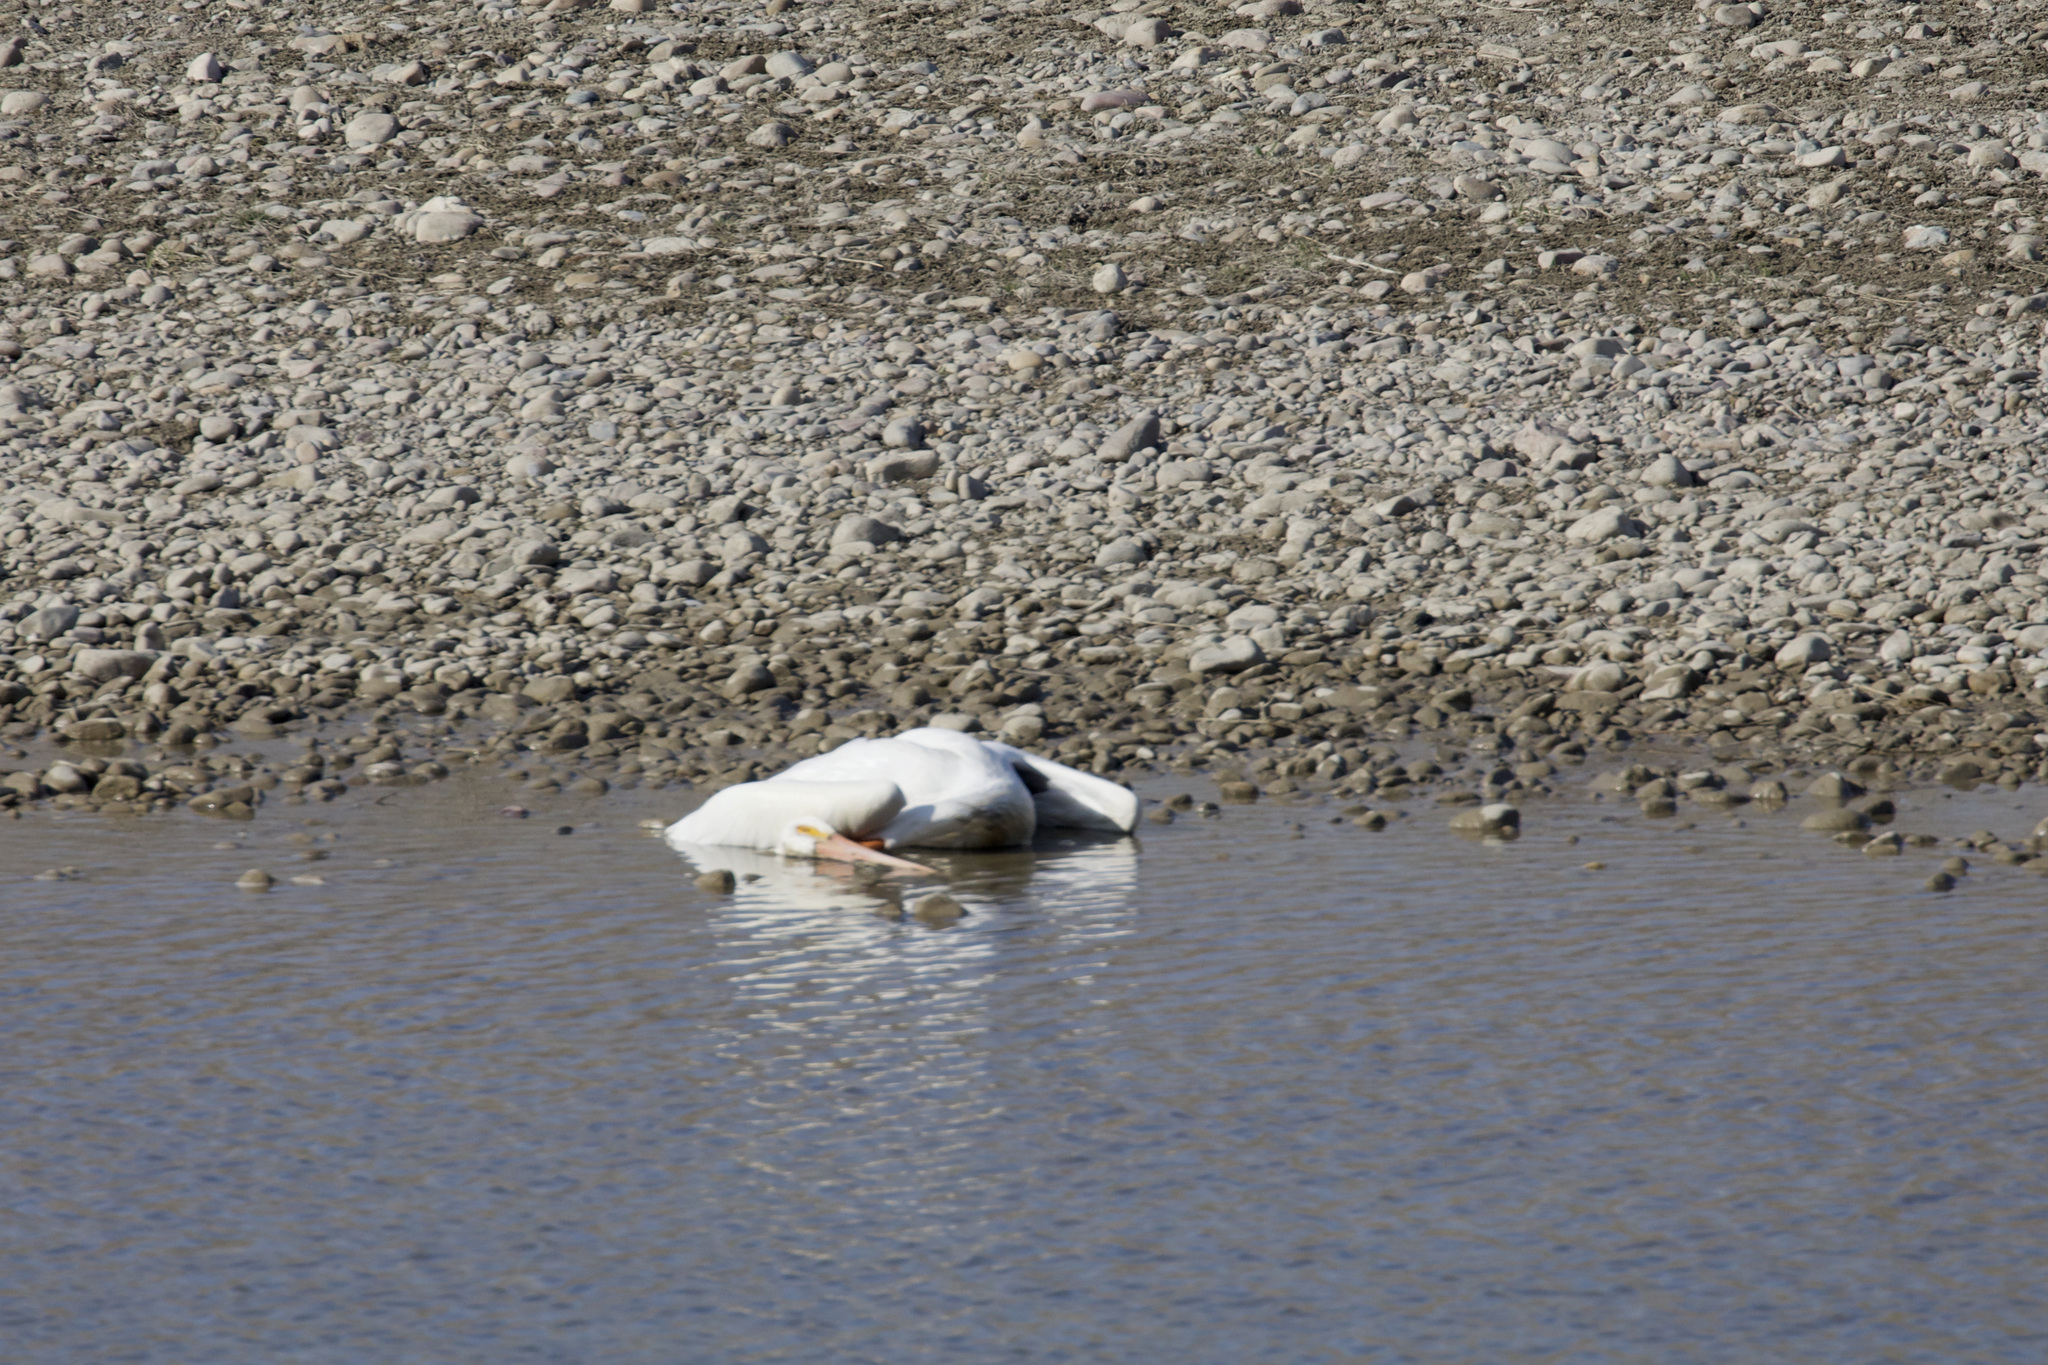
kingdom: Animalia
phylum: Chordata
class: Aves
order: Pelecaniformes
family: Pelecanidae
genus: Pelecanus
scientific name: Pelecanus erythrorhynchos
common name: American white pelican
